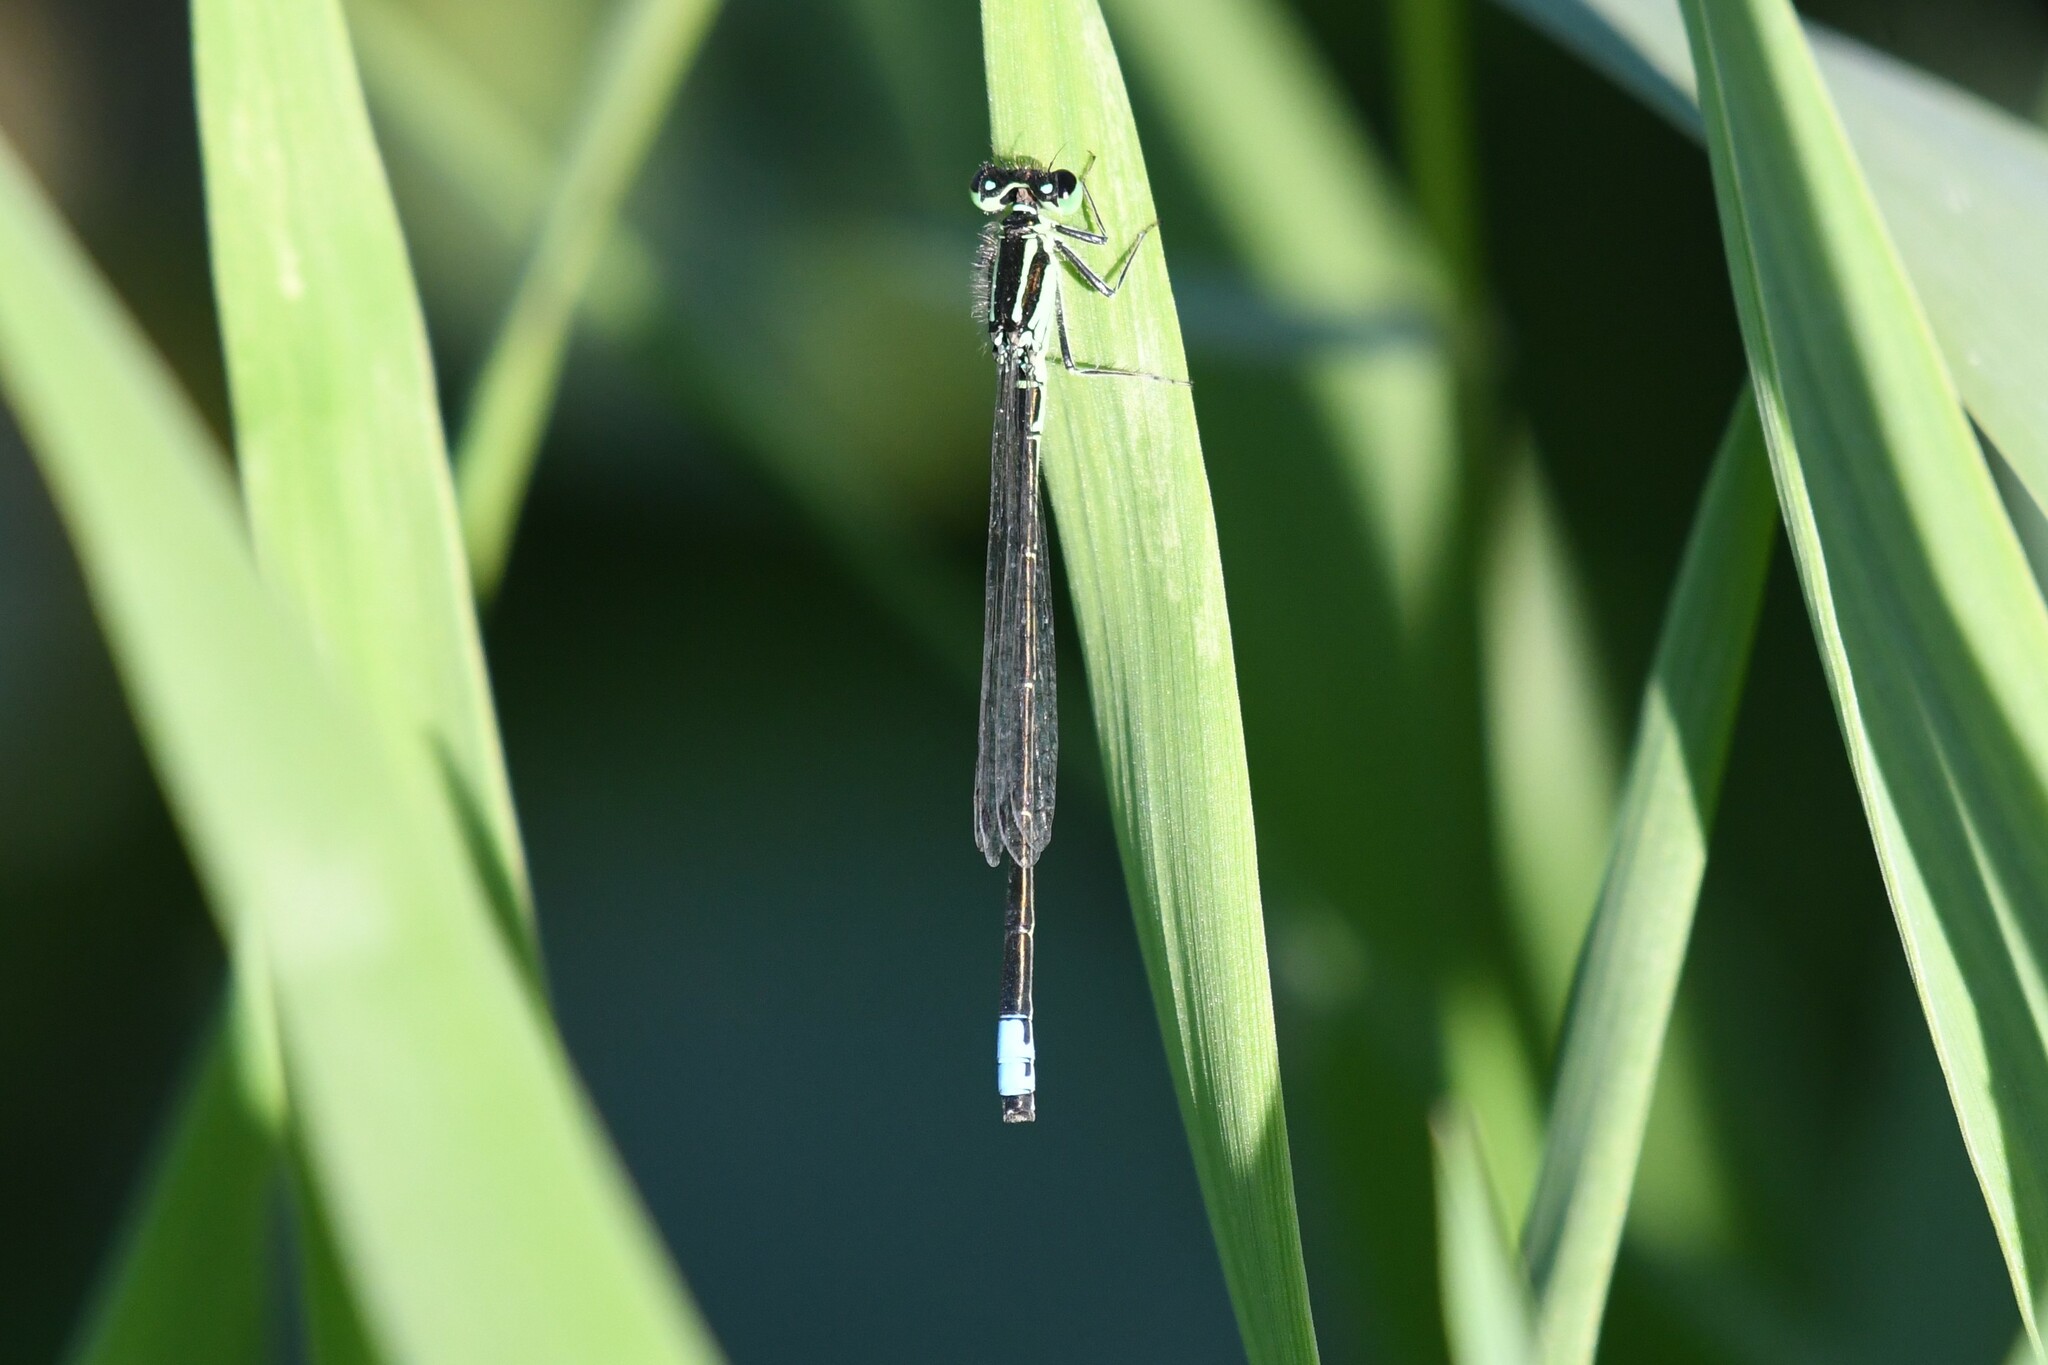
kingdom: Animalia
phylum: Arthropoda
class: Insecta
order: Odonata
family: Coenagrionidae
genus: Ischnura
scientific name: Ischnura verticalis
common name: Eastern forktail
